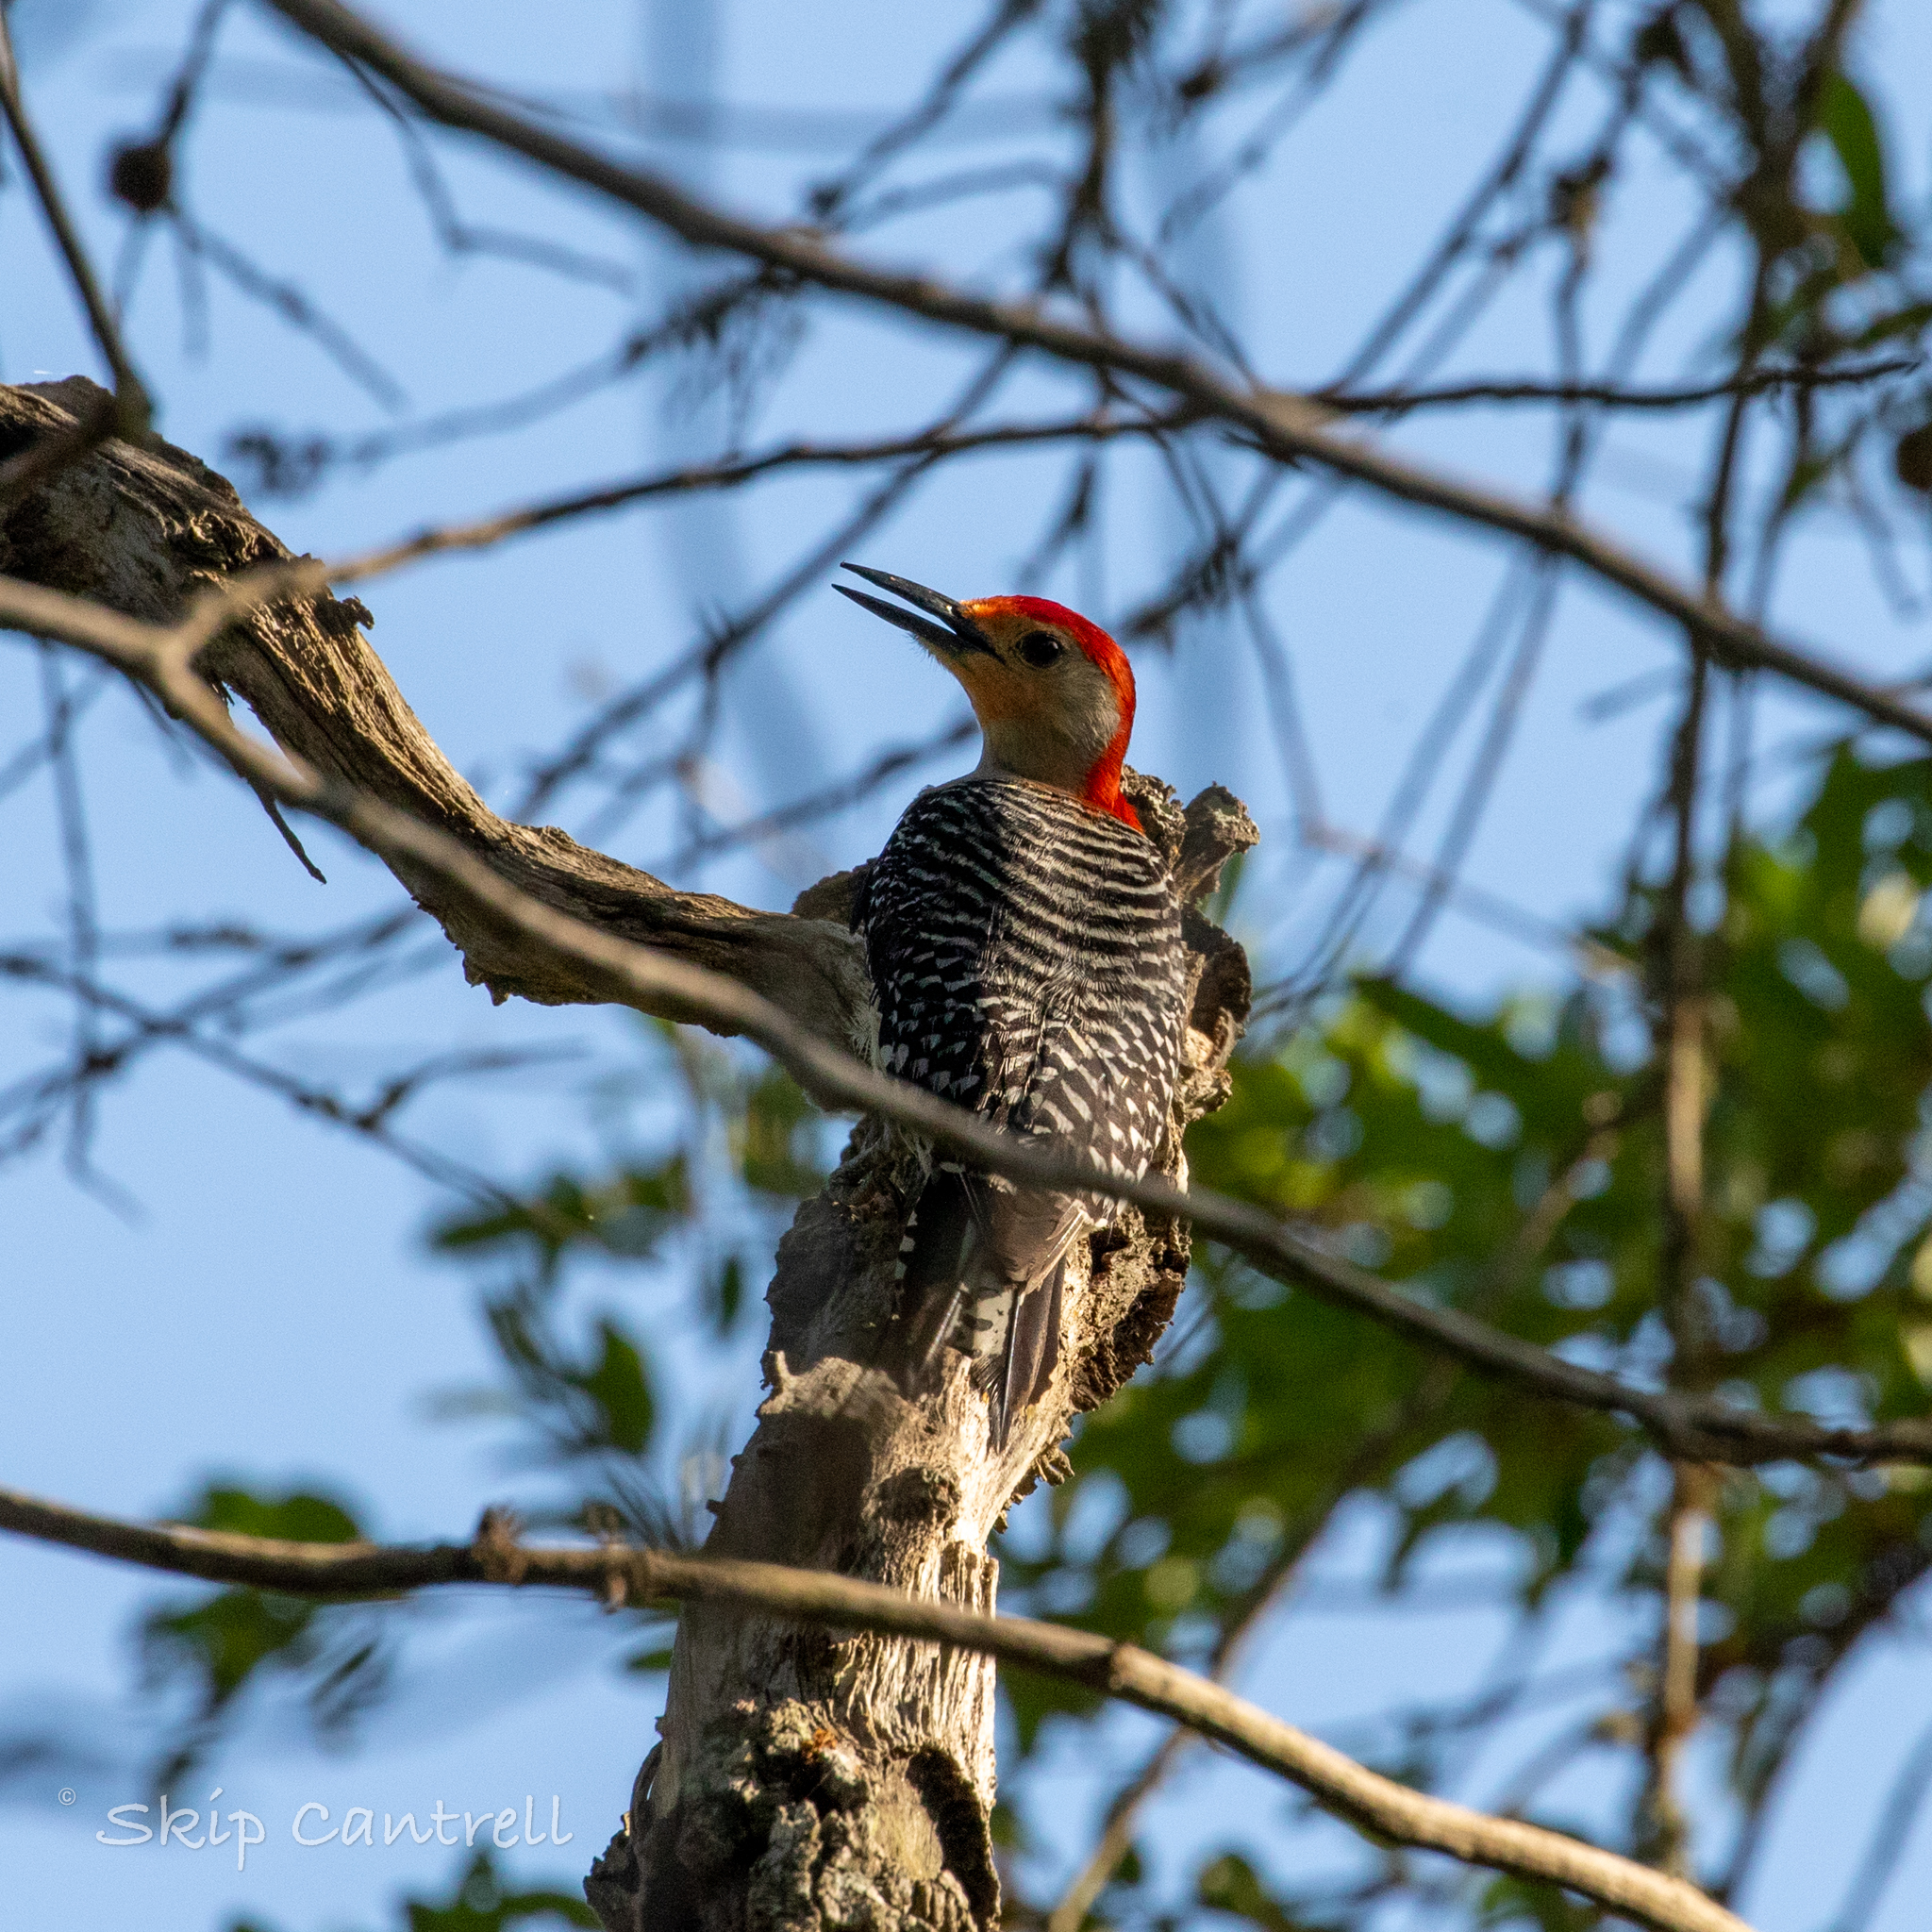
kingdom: Animalia
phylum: Chordata
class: Aves
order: Piciformes
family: Picidae
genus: Melanerpes
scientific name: Melanerpes carolinus
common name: Red-bellied woodpecker
